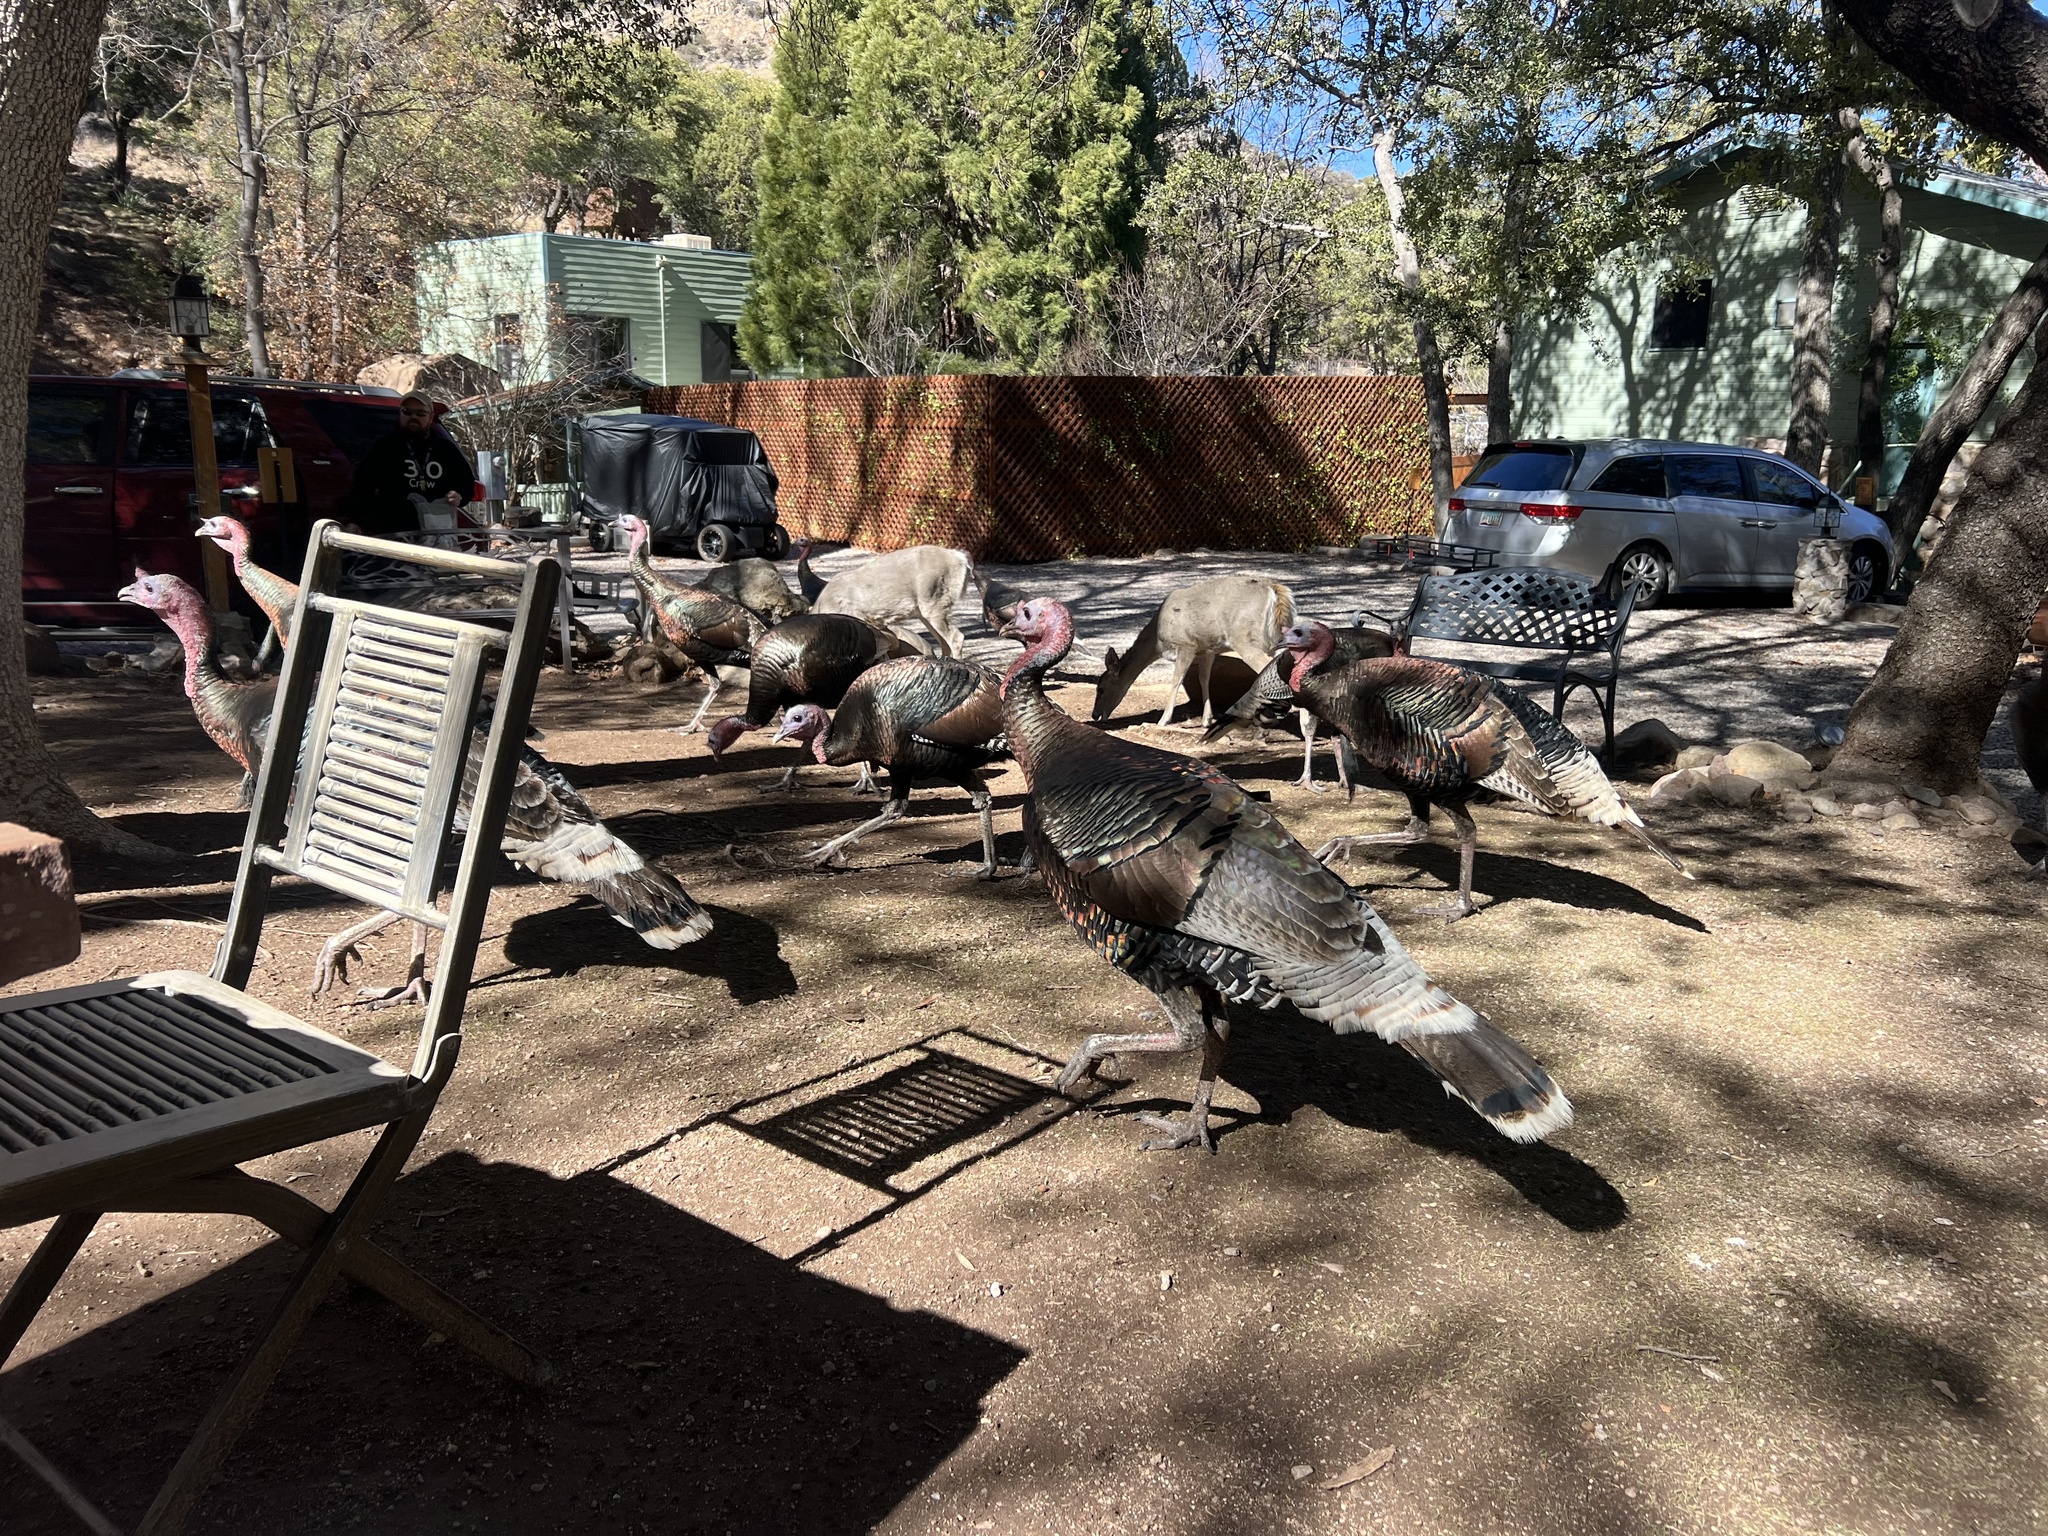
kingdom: Animalia
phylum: Chordata
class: Aves
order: Galliformes
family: Phasianidae
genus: Meleagris
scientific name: Meleagris gallopavo
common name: Wild turkey
